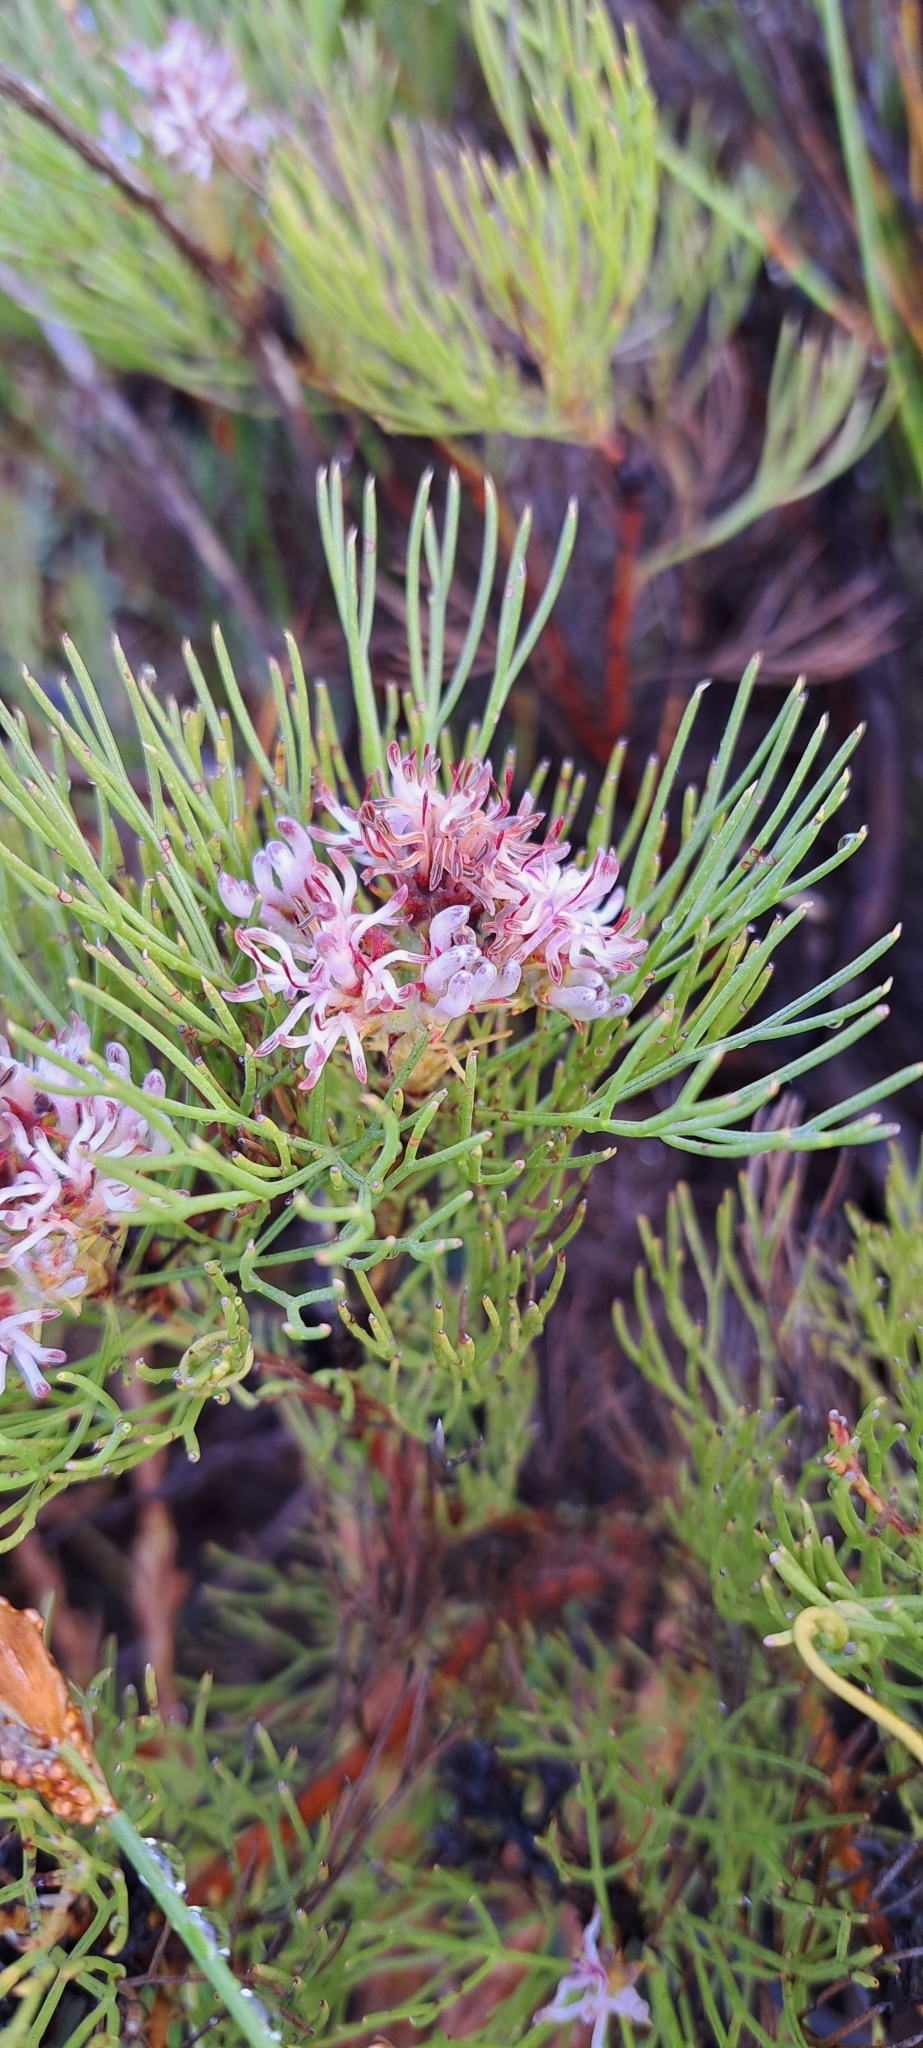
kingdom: Plantae
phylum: Tracheophyta
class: Magnoliopsida
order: Proteales
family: Proteaceae
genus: Serruria
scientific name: Serruria ascendens
